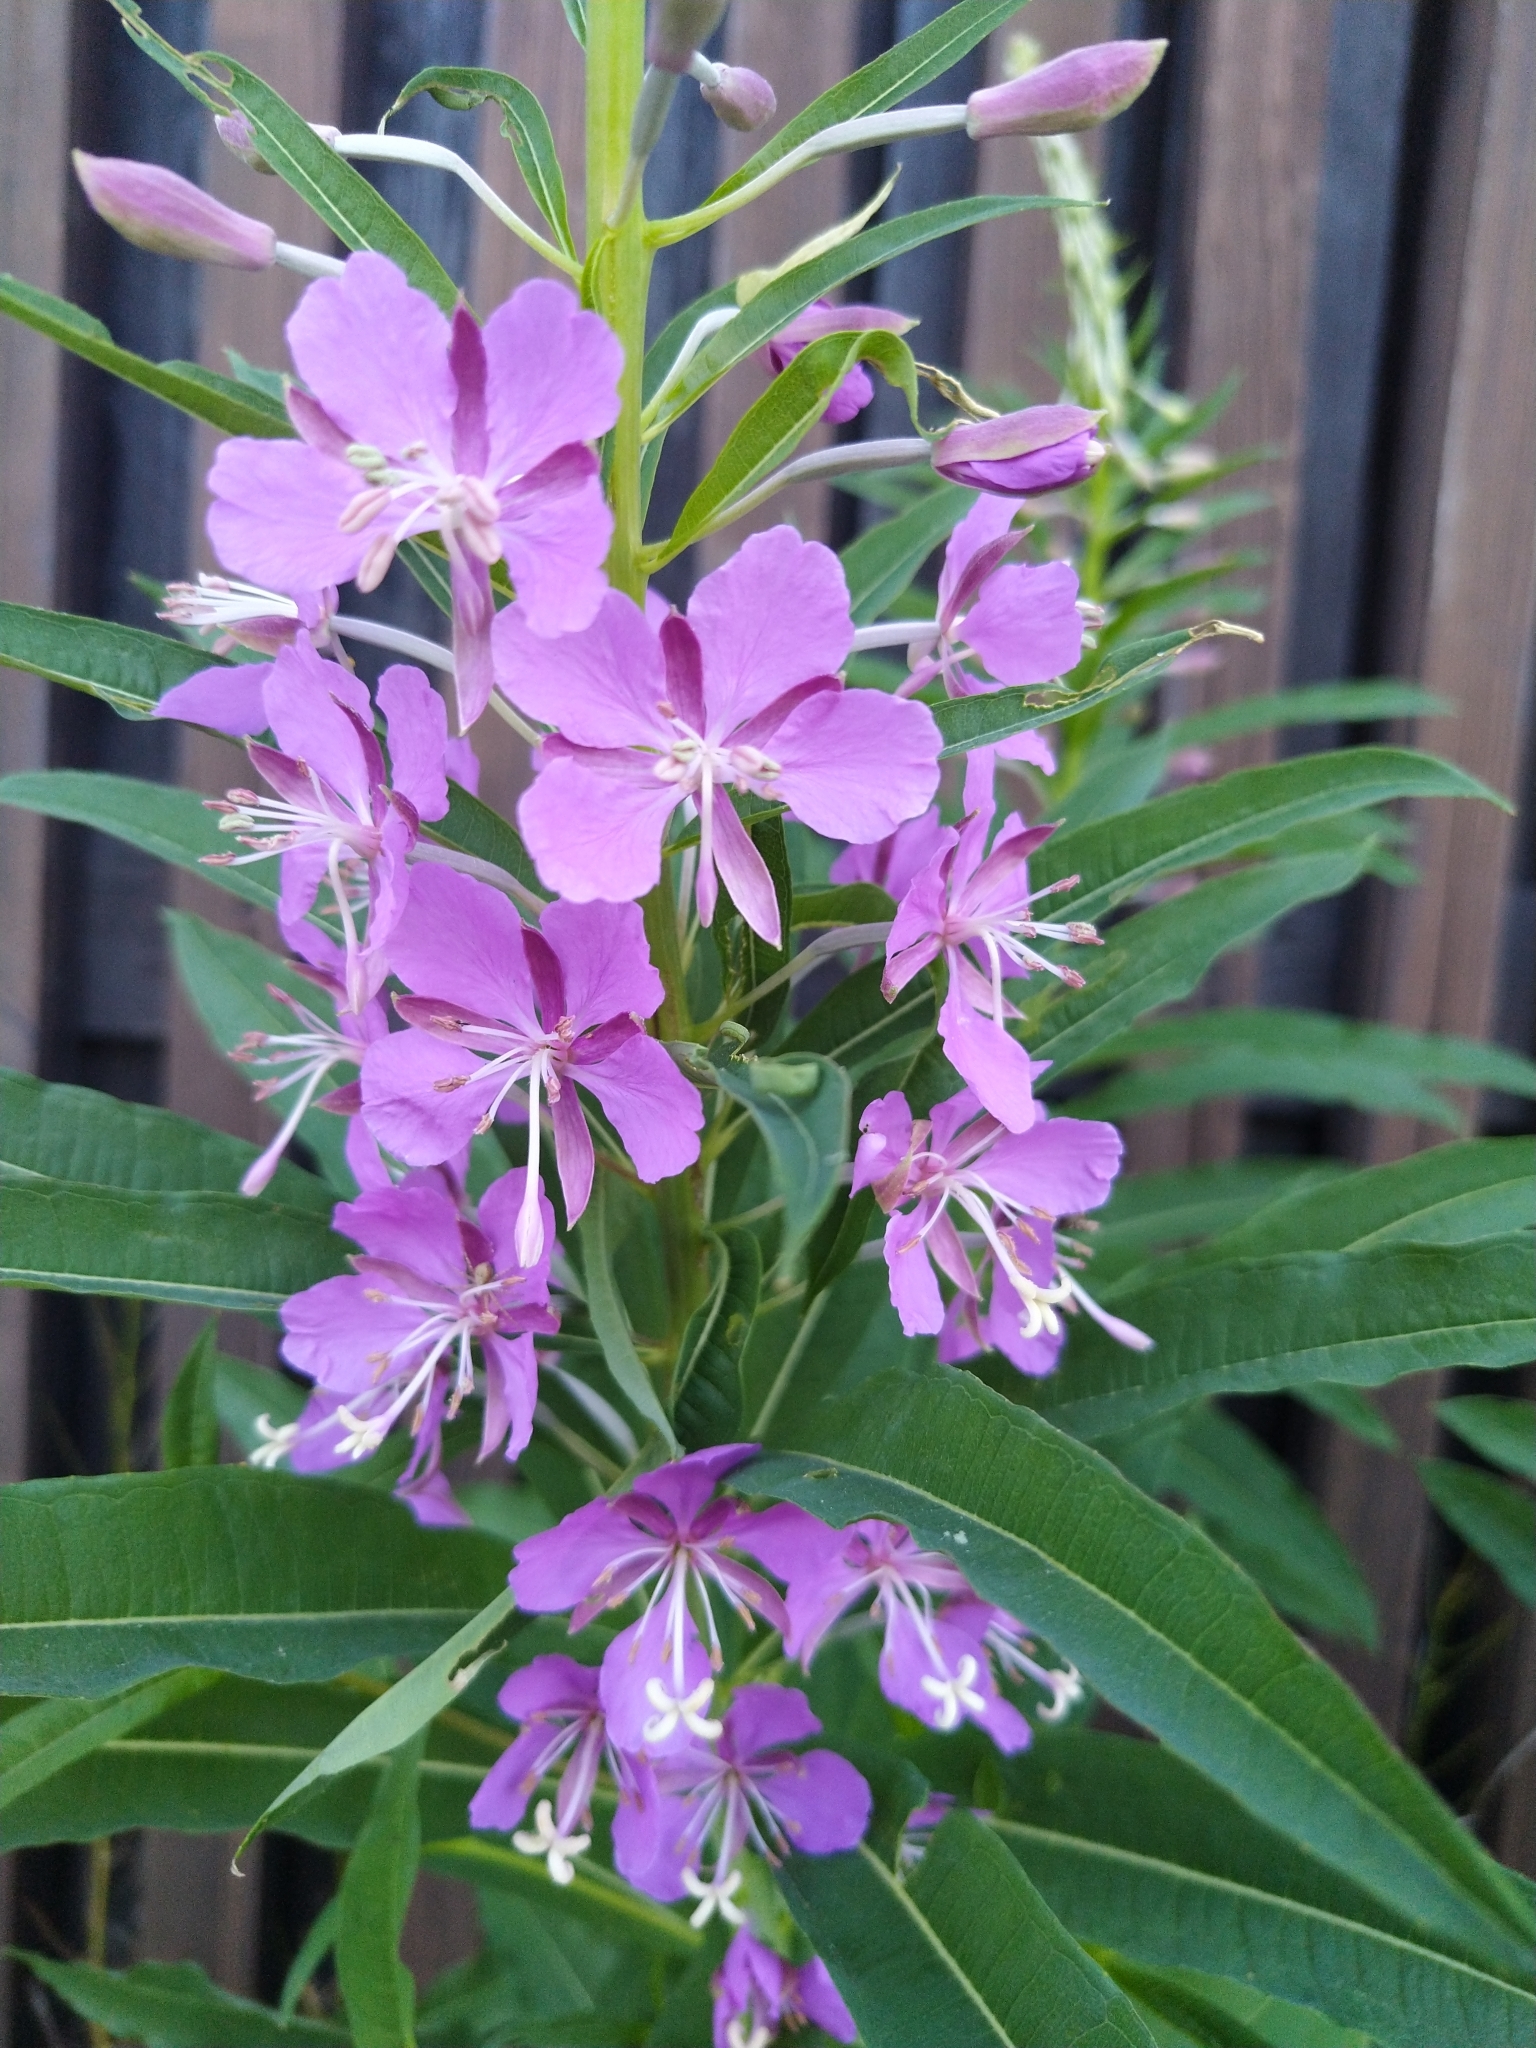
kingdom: Plantae
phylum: Tracheophyta
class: Magnoliopsida
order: Myrtales
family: Onagraceae
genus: Chamaenerion
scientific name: Chamaenerion angustifolium
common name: Fireweed
